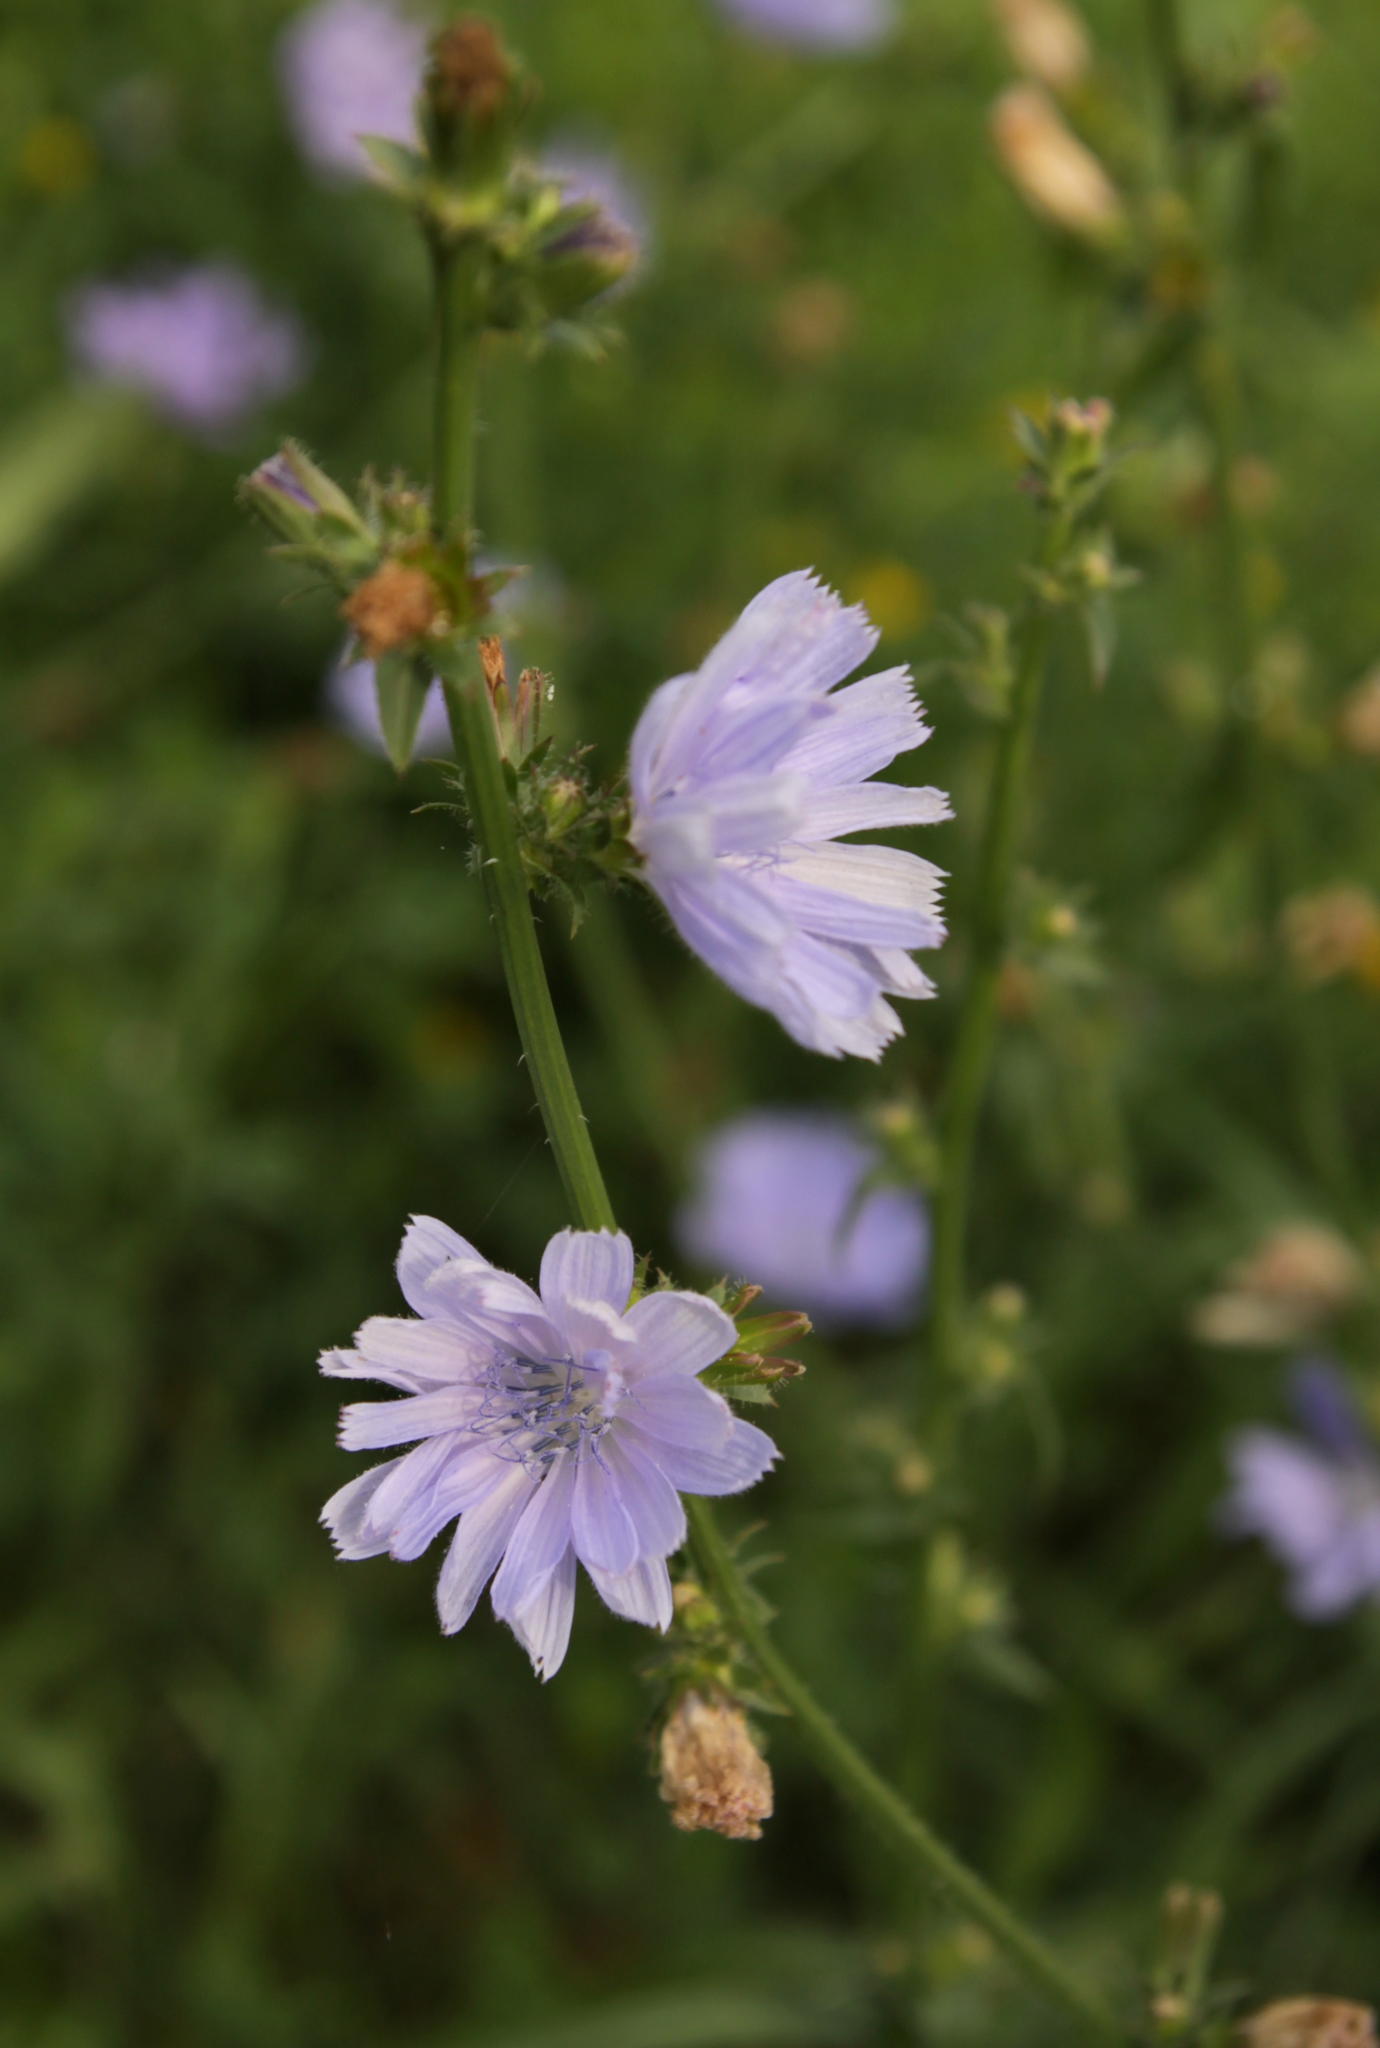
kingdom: Plantae
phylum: Tracheophyta
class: Magnoliopsida
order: Asterales
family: Asteraceae
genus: Cichorium
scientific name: Cichorium intybus
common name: Chicory
